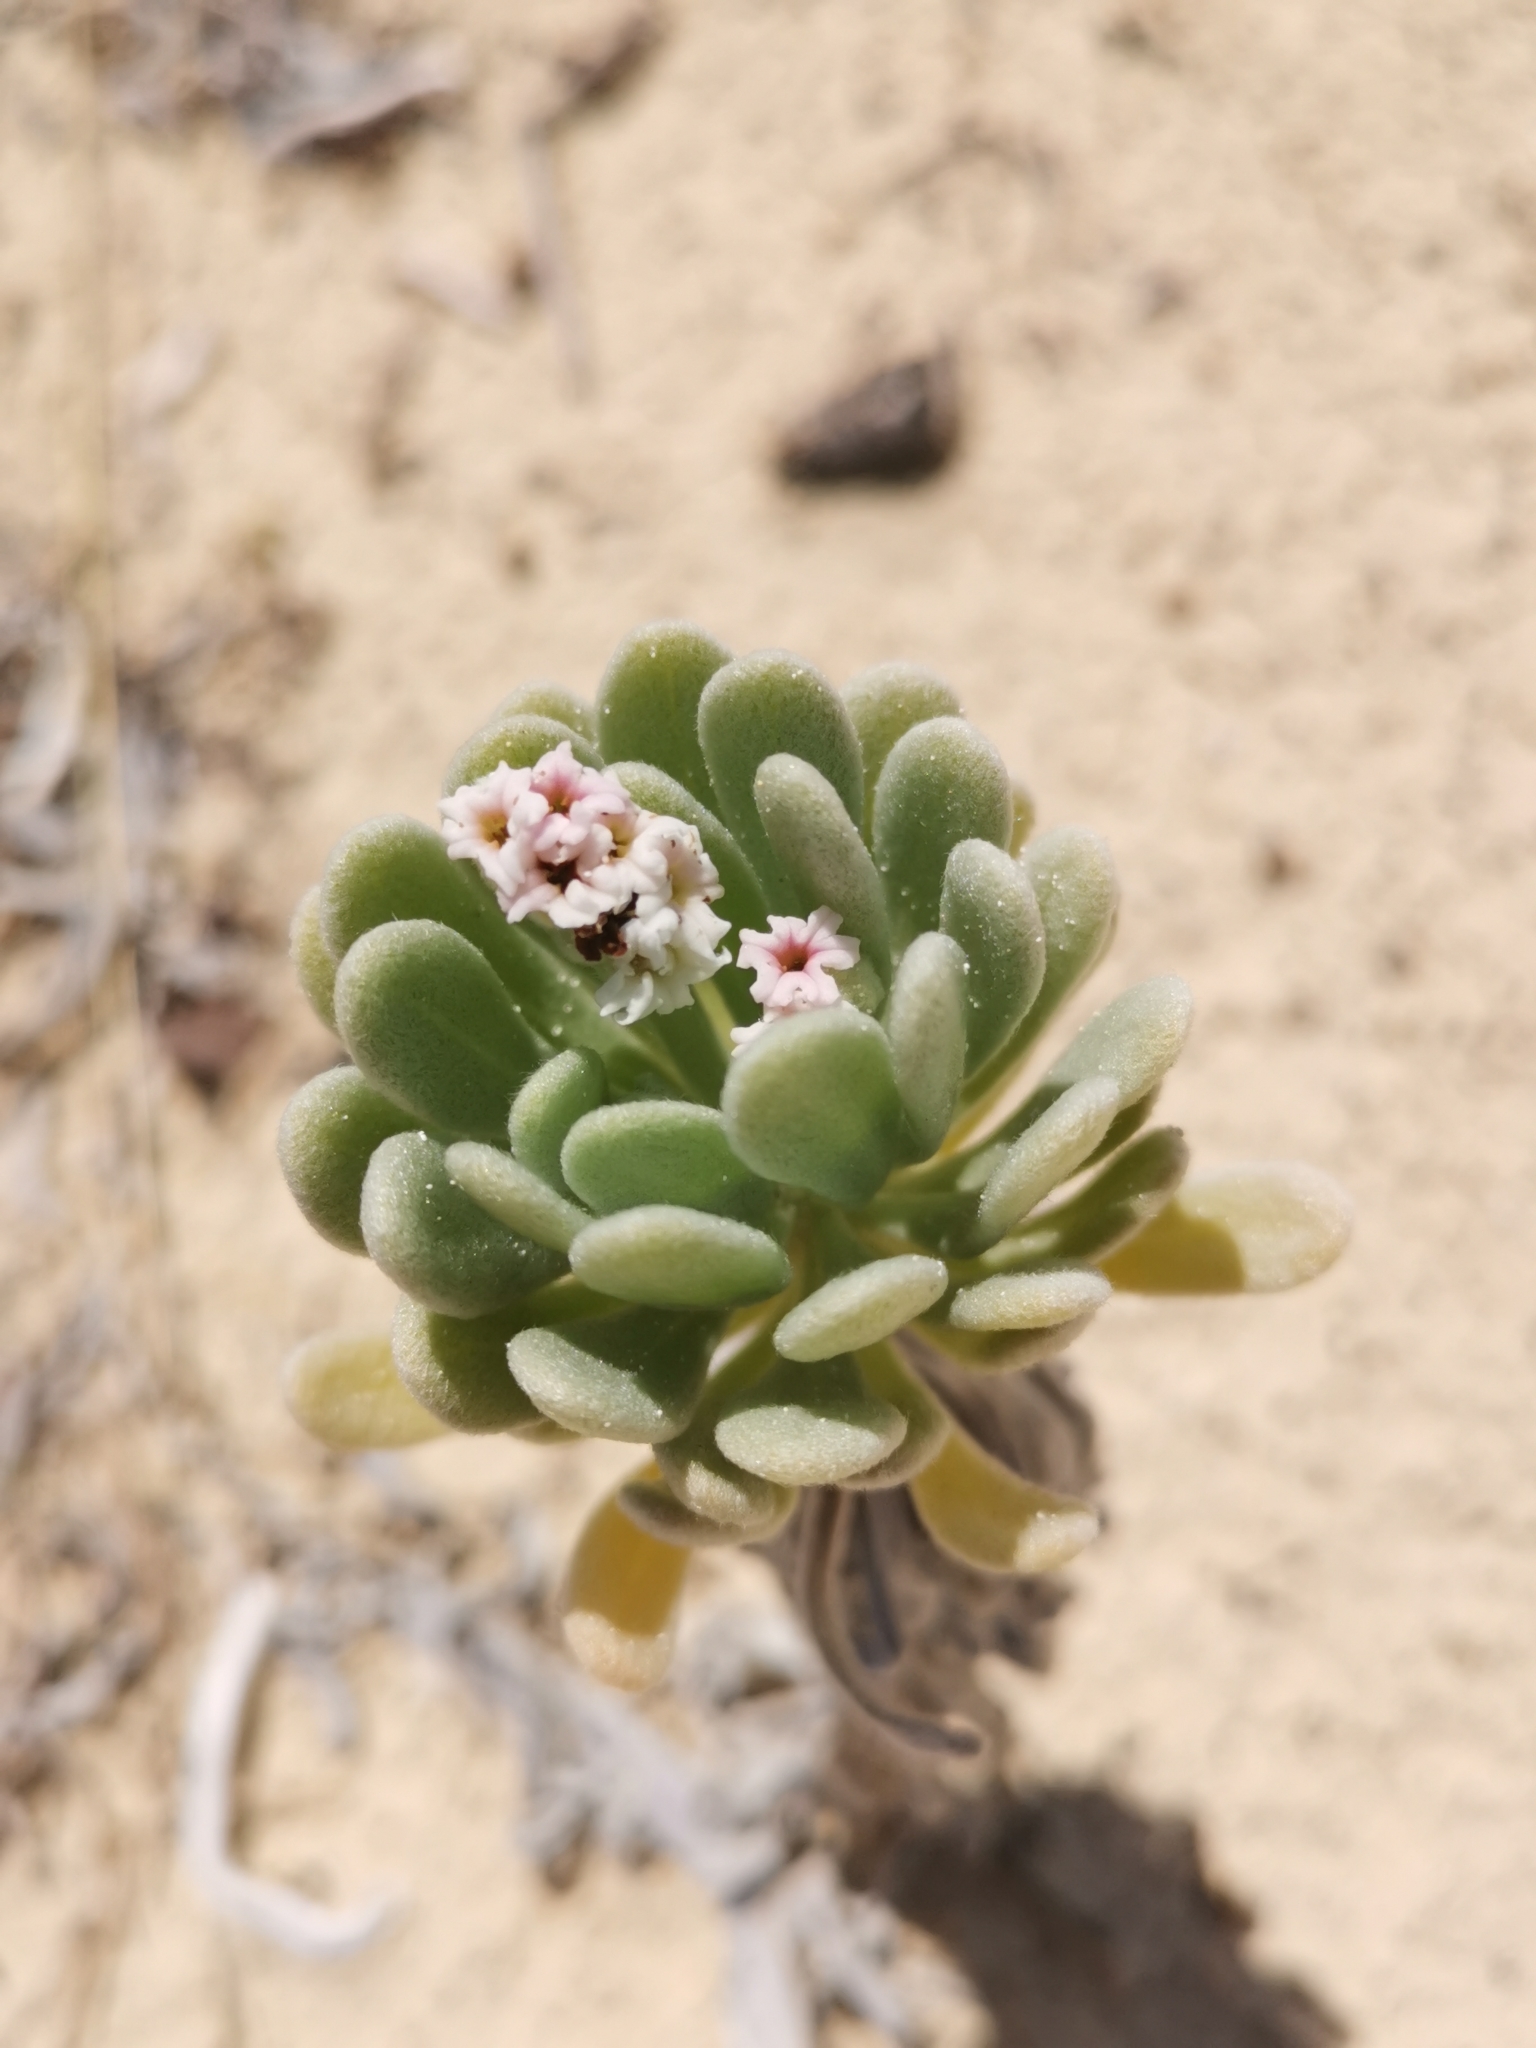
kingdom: Plantae
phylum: Tracheophyta
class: Magnoliopsida
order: Boraginales
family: Heliotropiaceae
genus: Tournefortia
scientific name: Tournefortia gnaphalodes
